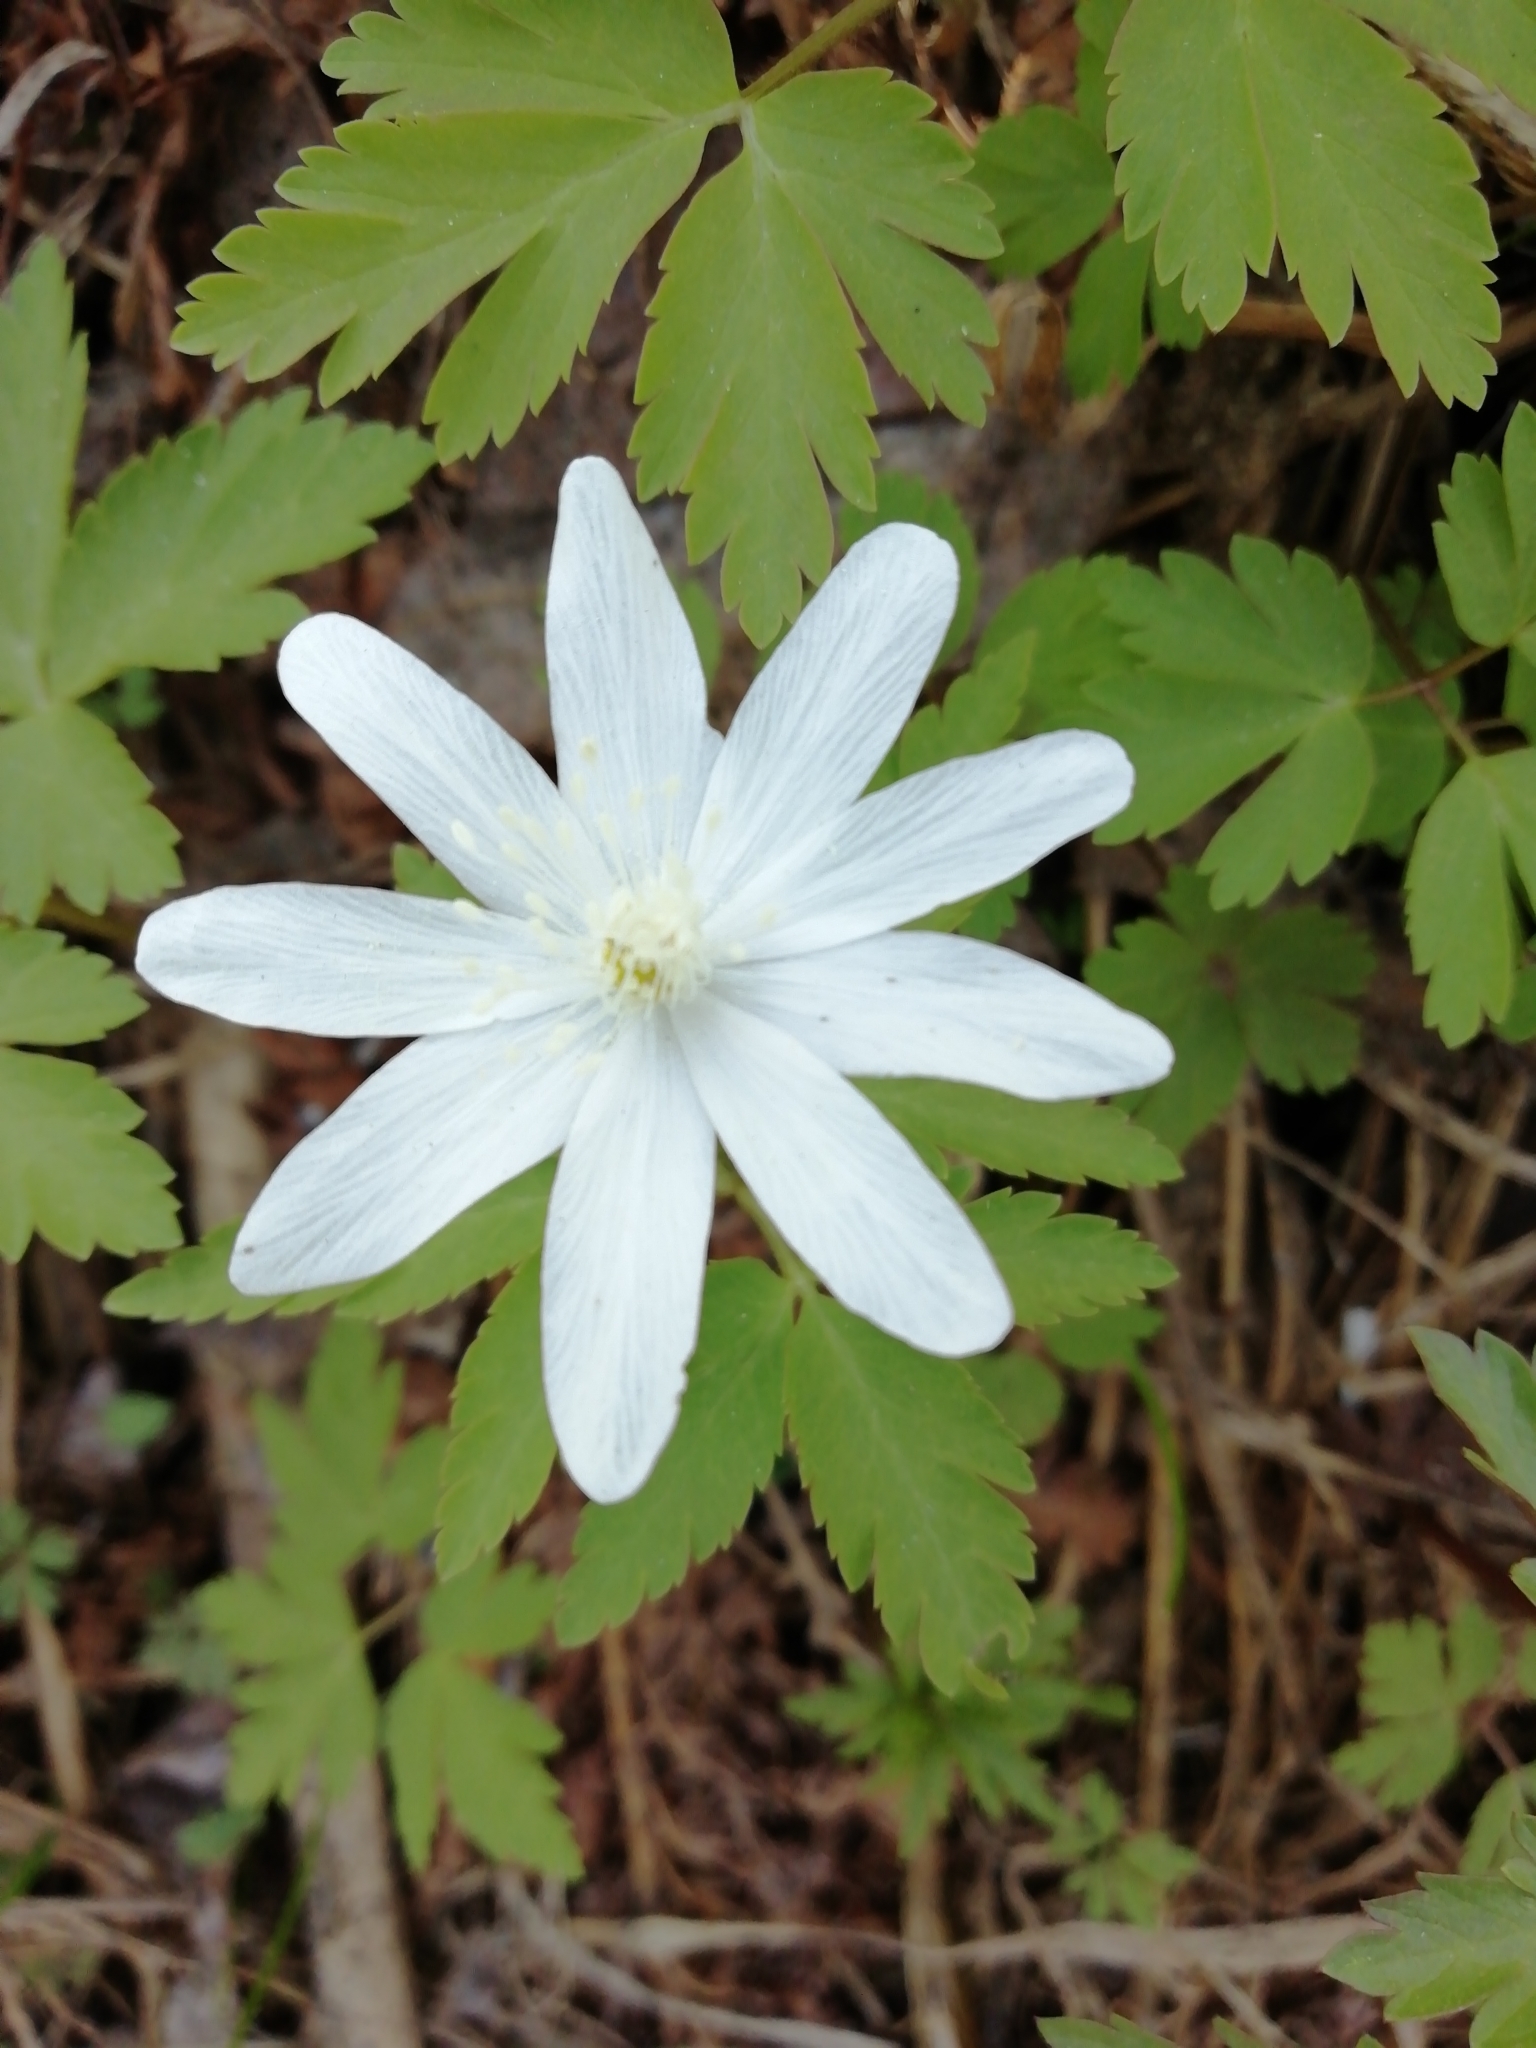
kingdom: Plantae
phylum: Tracheophyta
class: Magnoliopsida
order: Ranunculales
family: Ranunculaceae
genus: Anemone
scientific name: Anemone altaica
